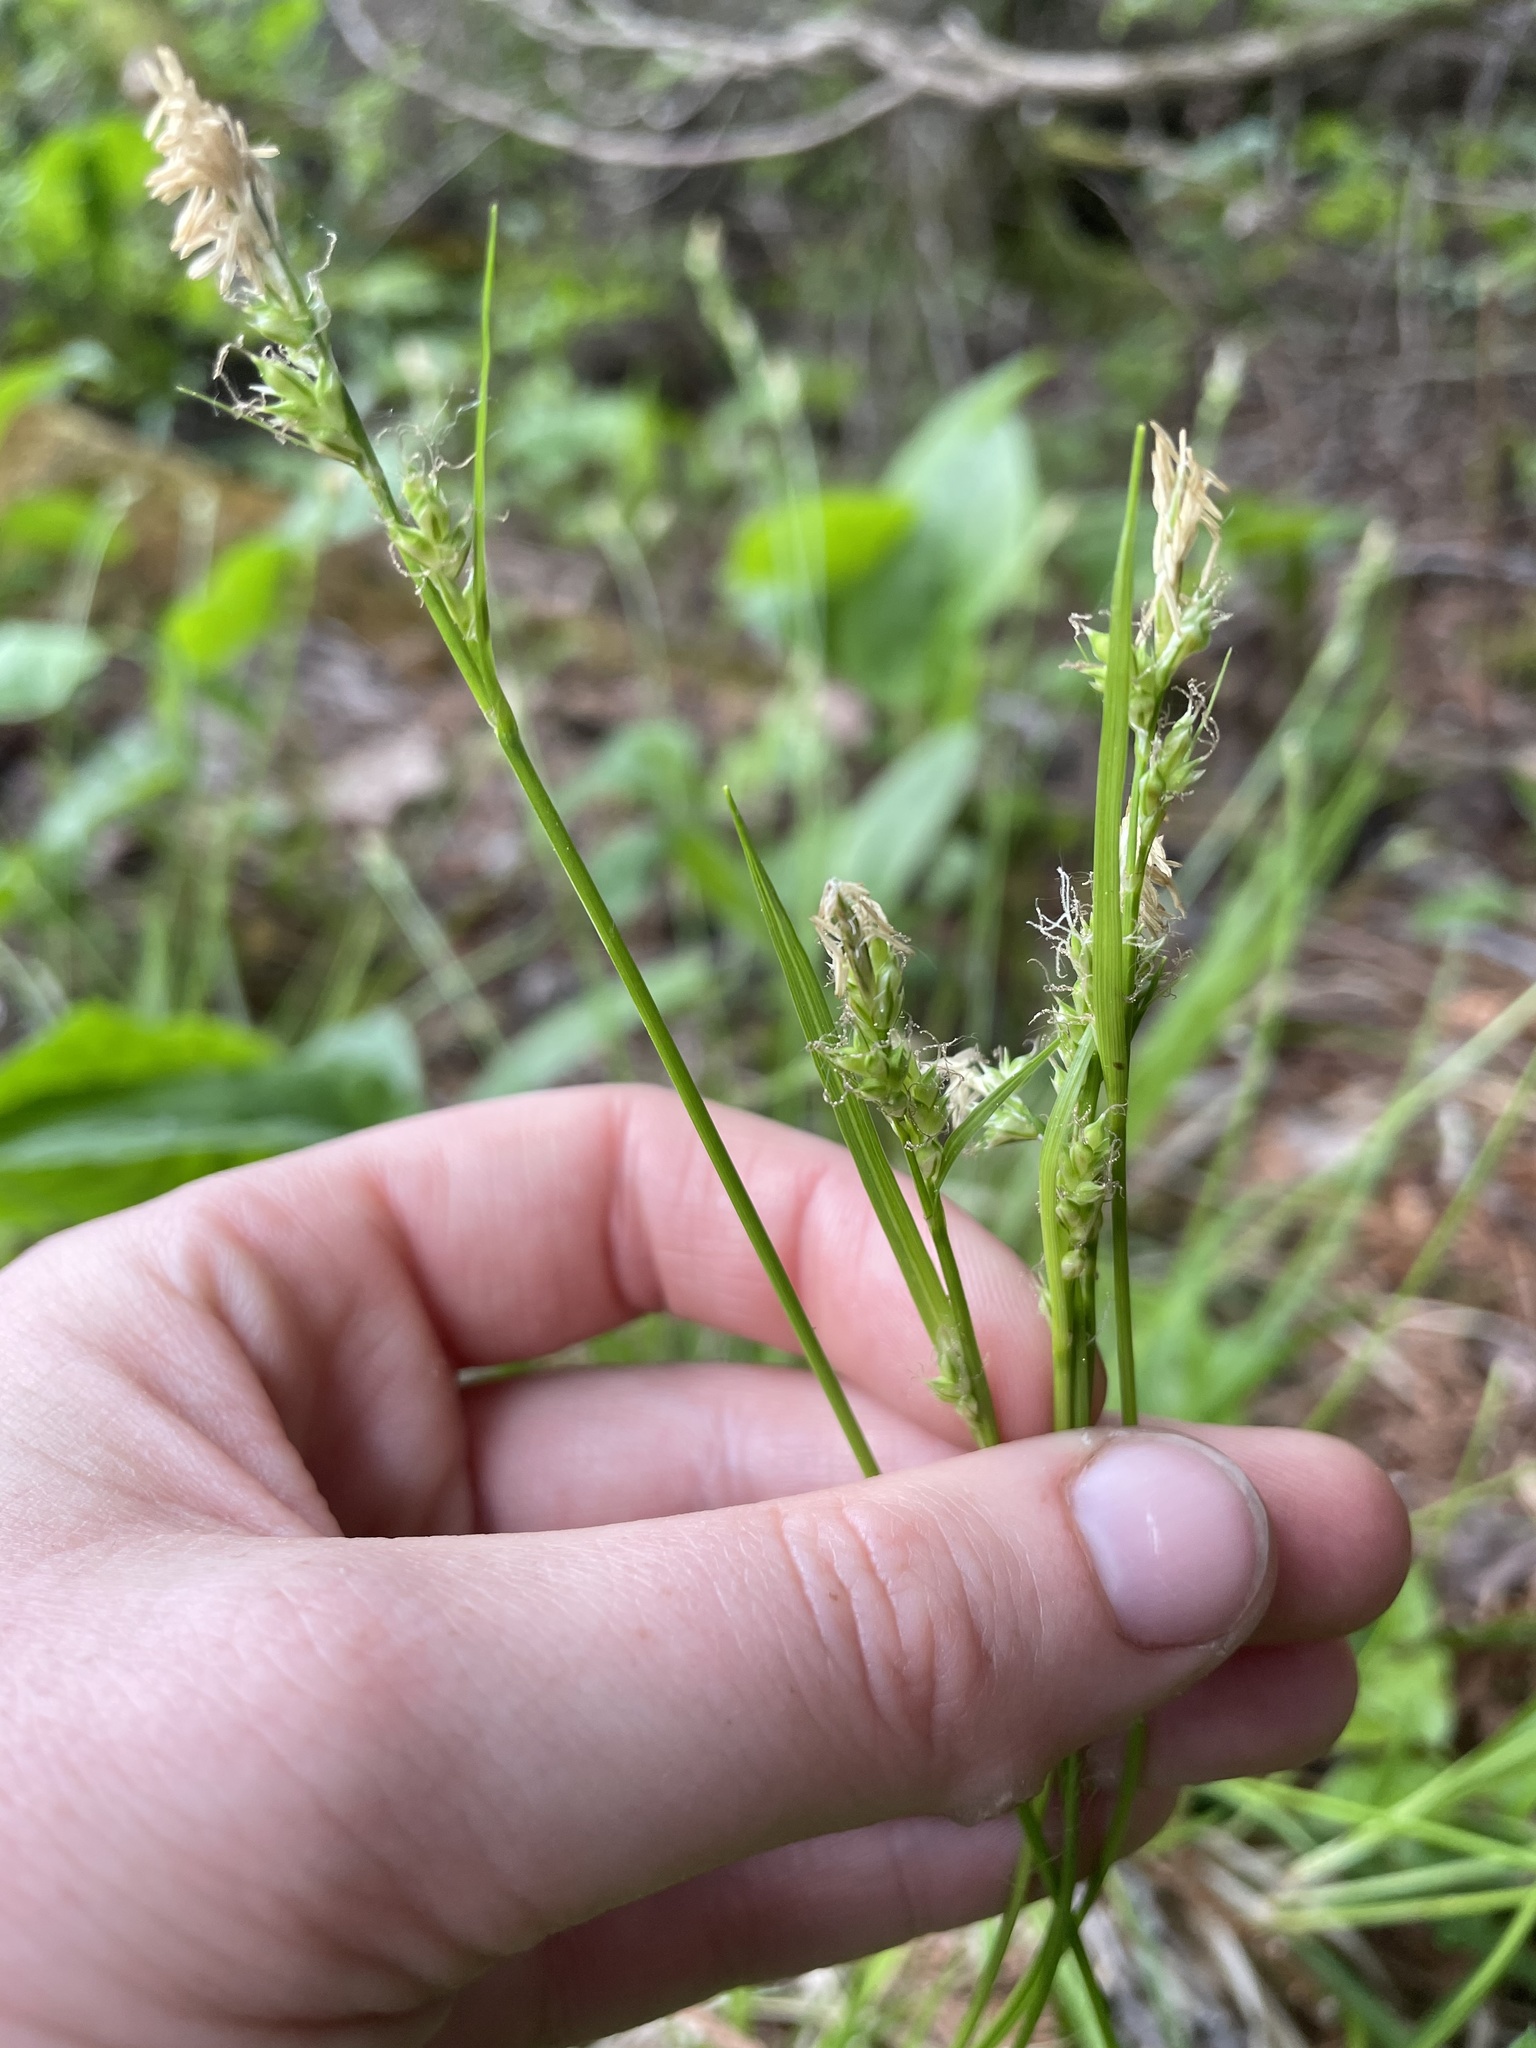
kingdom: Plantae
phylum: Tracheophyta
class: Liliopsida
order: Poales
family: Cyperaceae
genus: Carex
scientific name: Carex communis
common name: Colonial oak sedge
